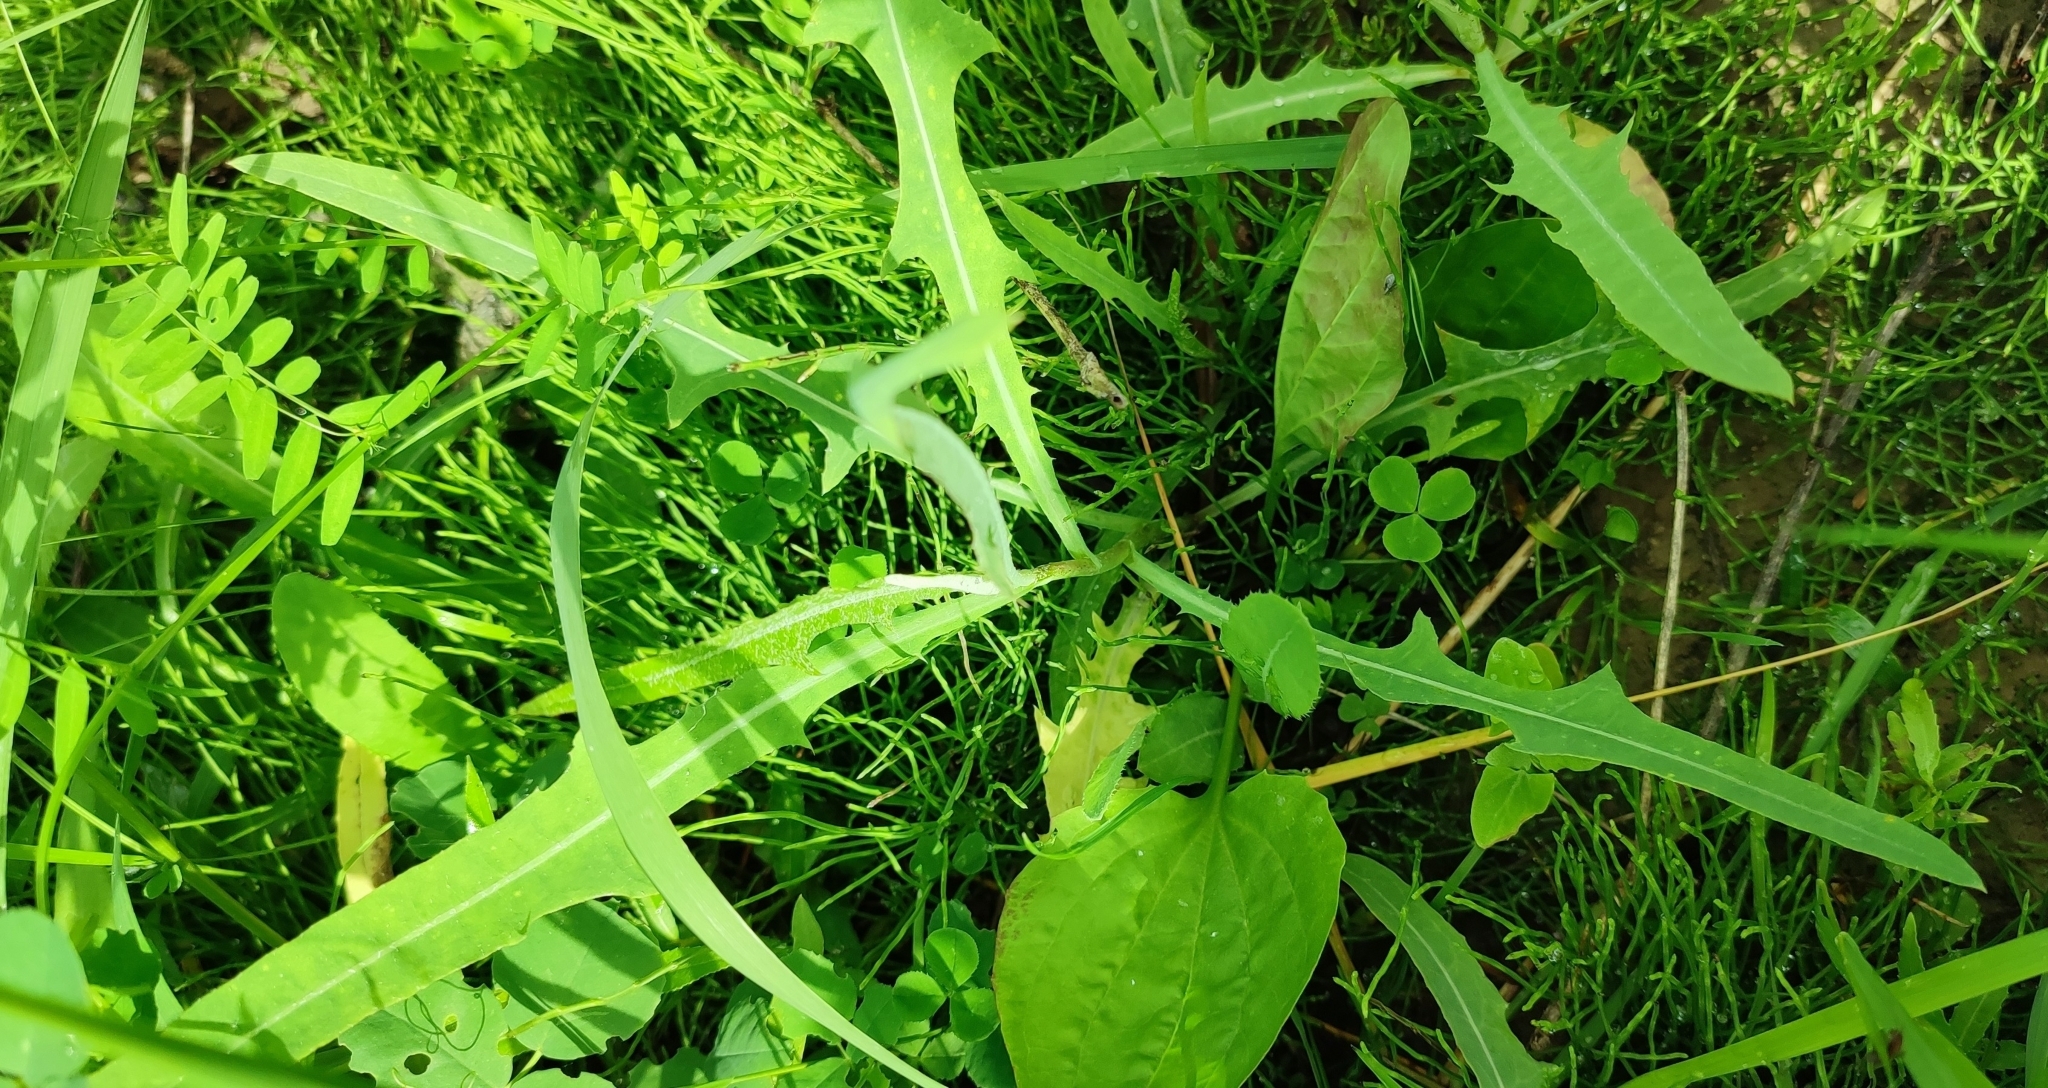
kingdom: Plantae
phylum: Tracheophyta
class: Magnoliopsida
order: Asterales
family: Asteraceae
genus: Lactuca
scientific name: Lactuca tatarica
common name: Blue lettuce
